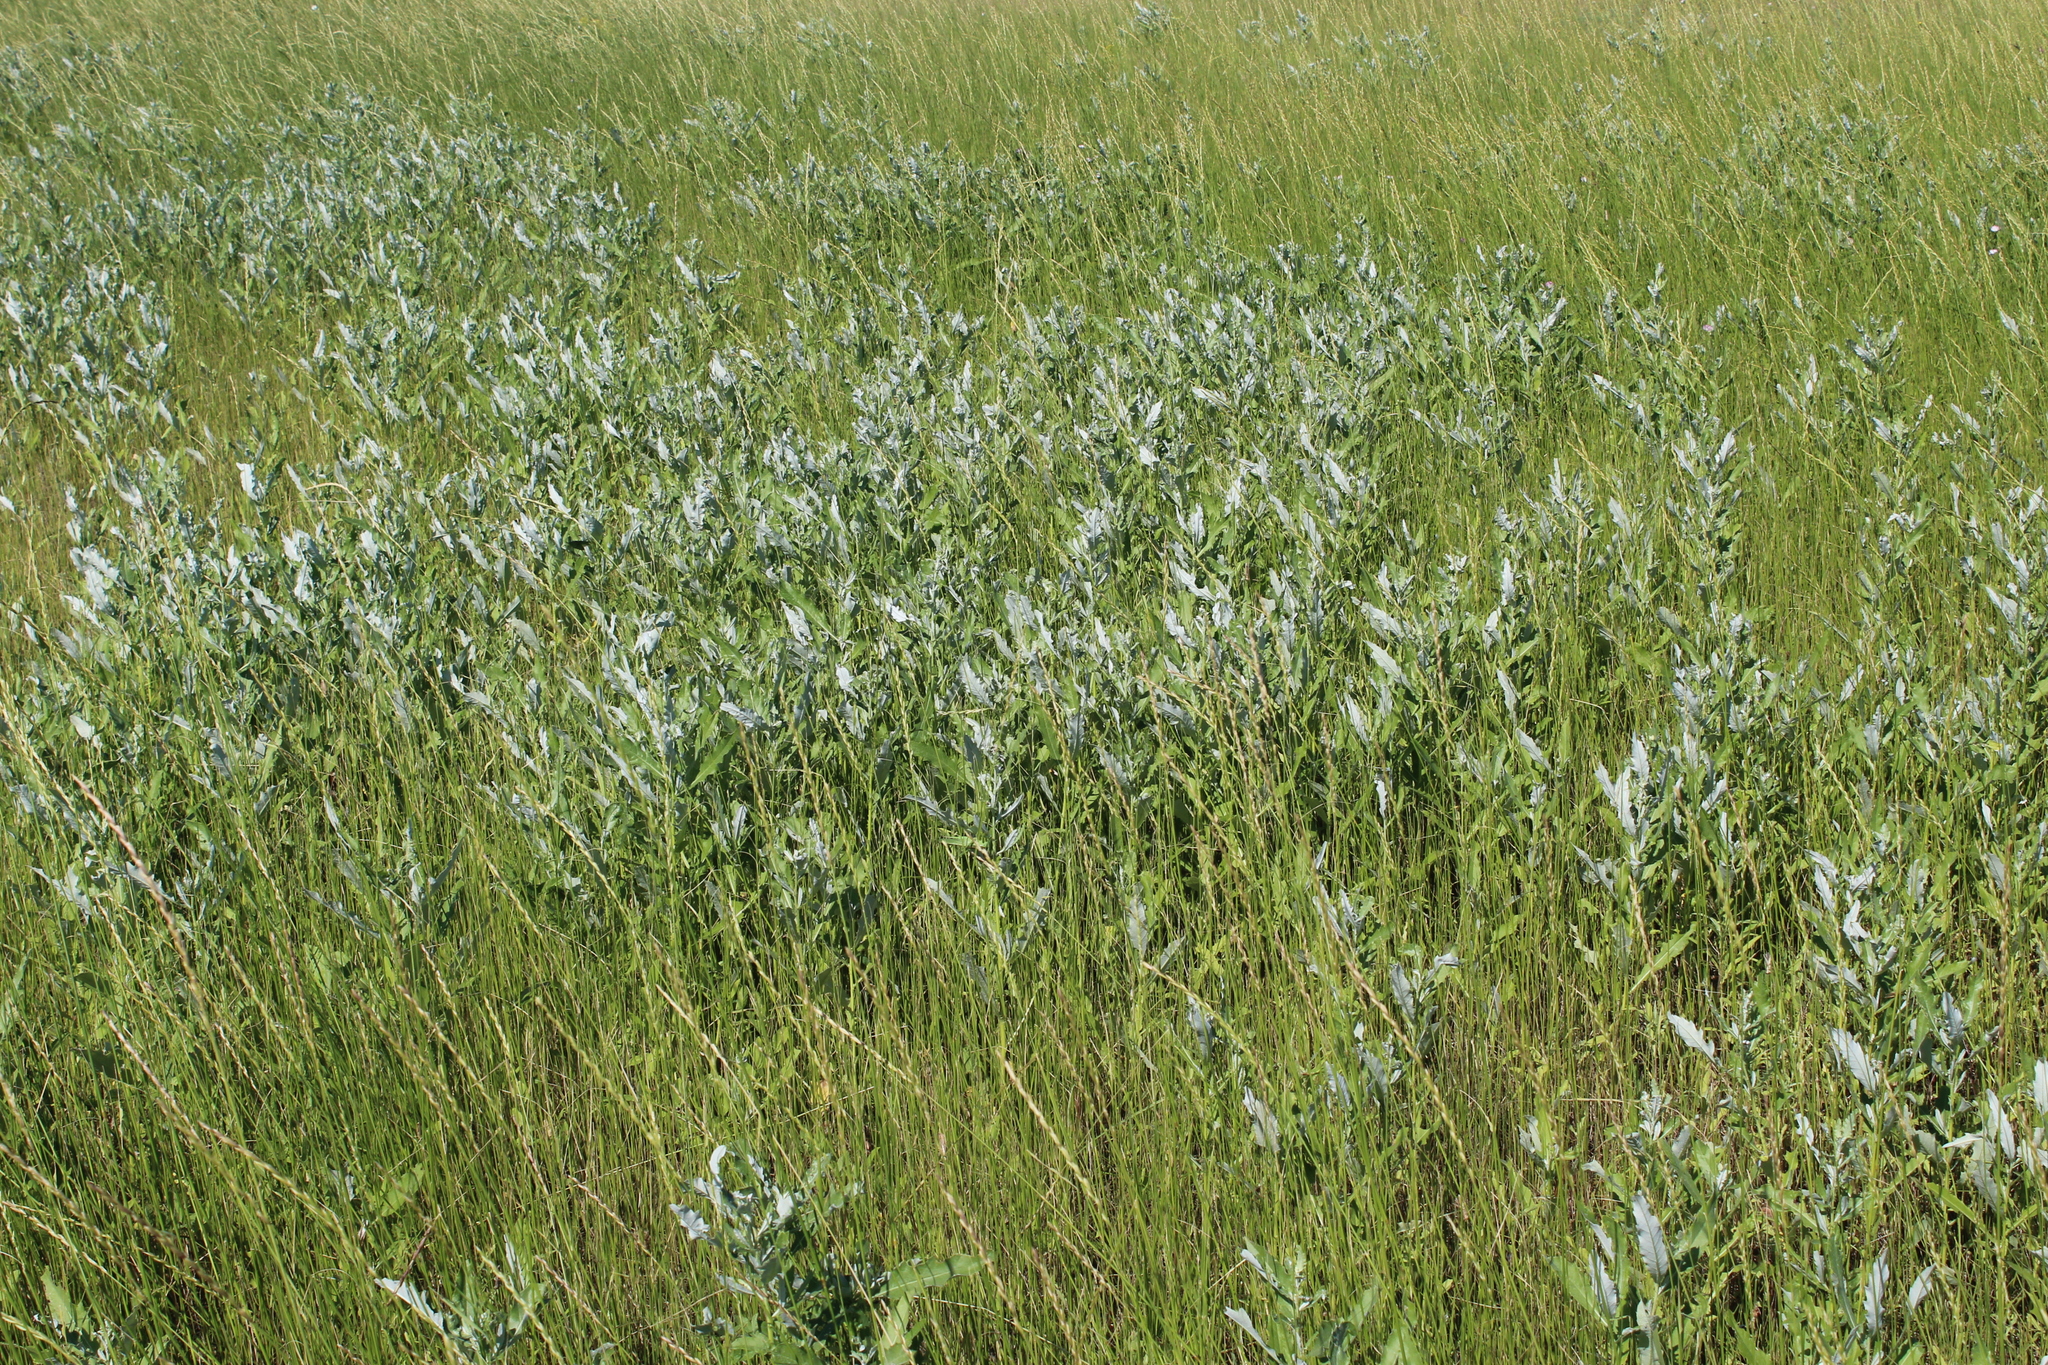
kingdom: Plantae
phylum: Tracheophyta
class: Magnoliopsida
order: Asterales
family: Asteraceae
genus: Cirsium
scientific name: Cirsium arvense
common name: Creeping thistle
